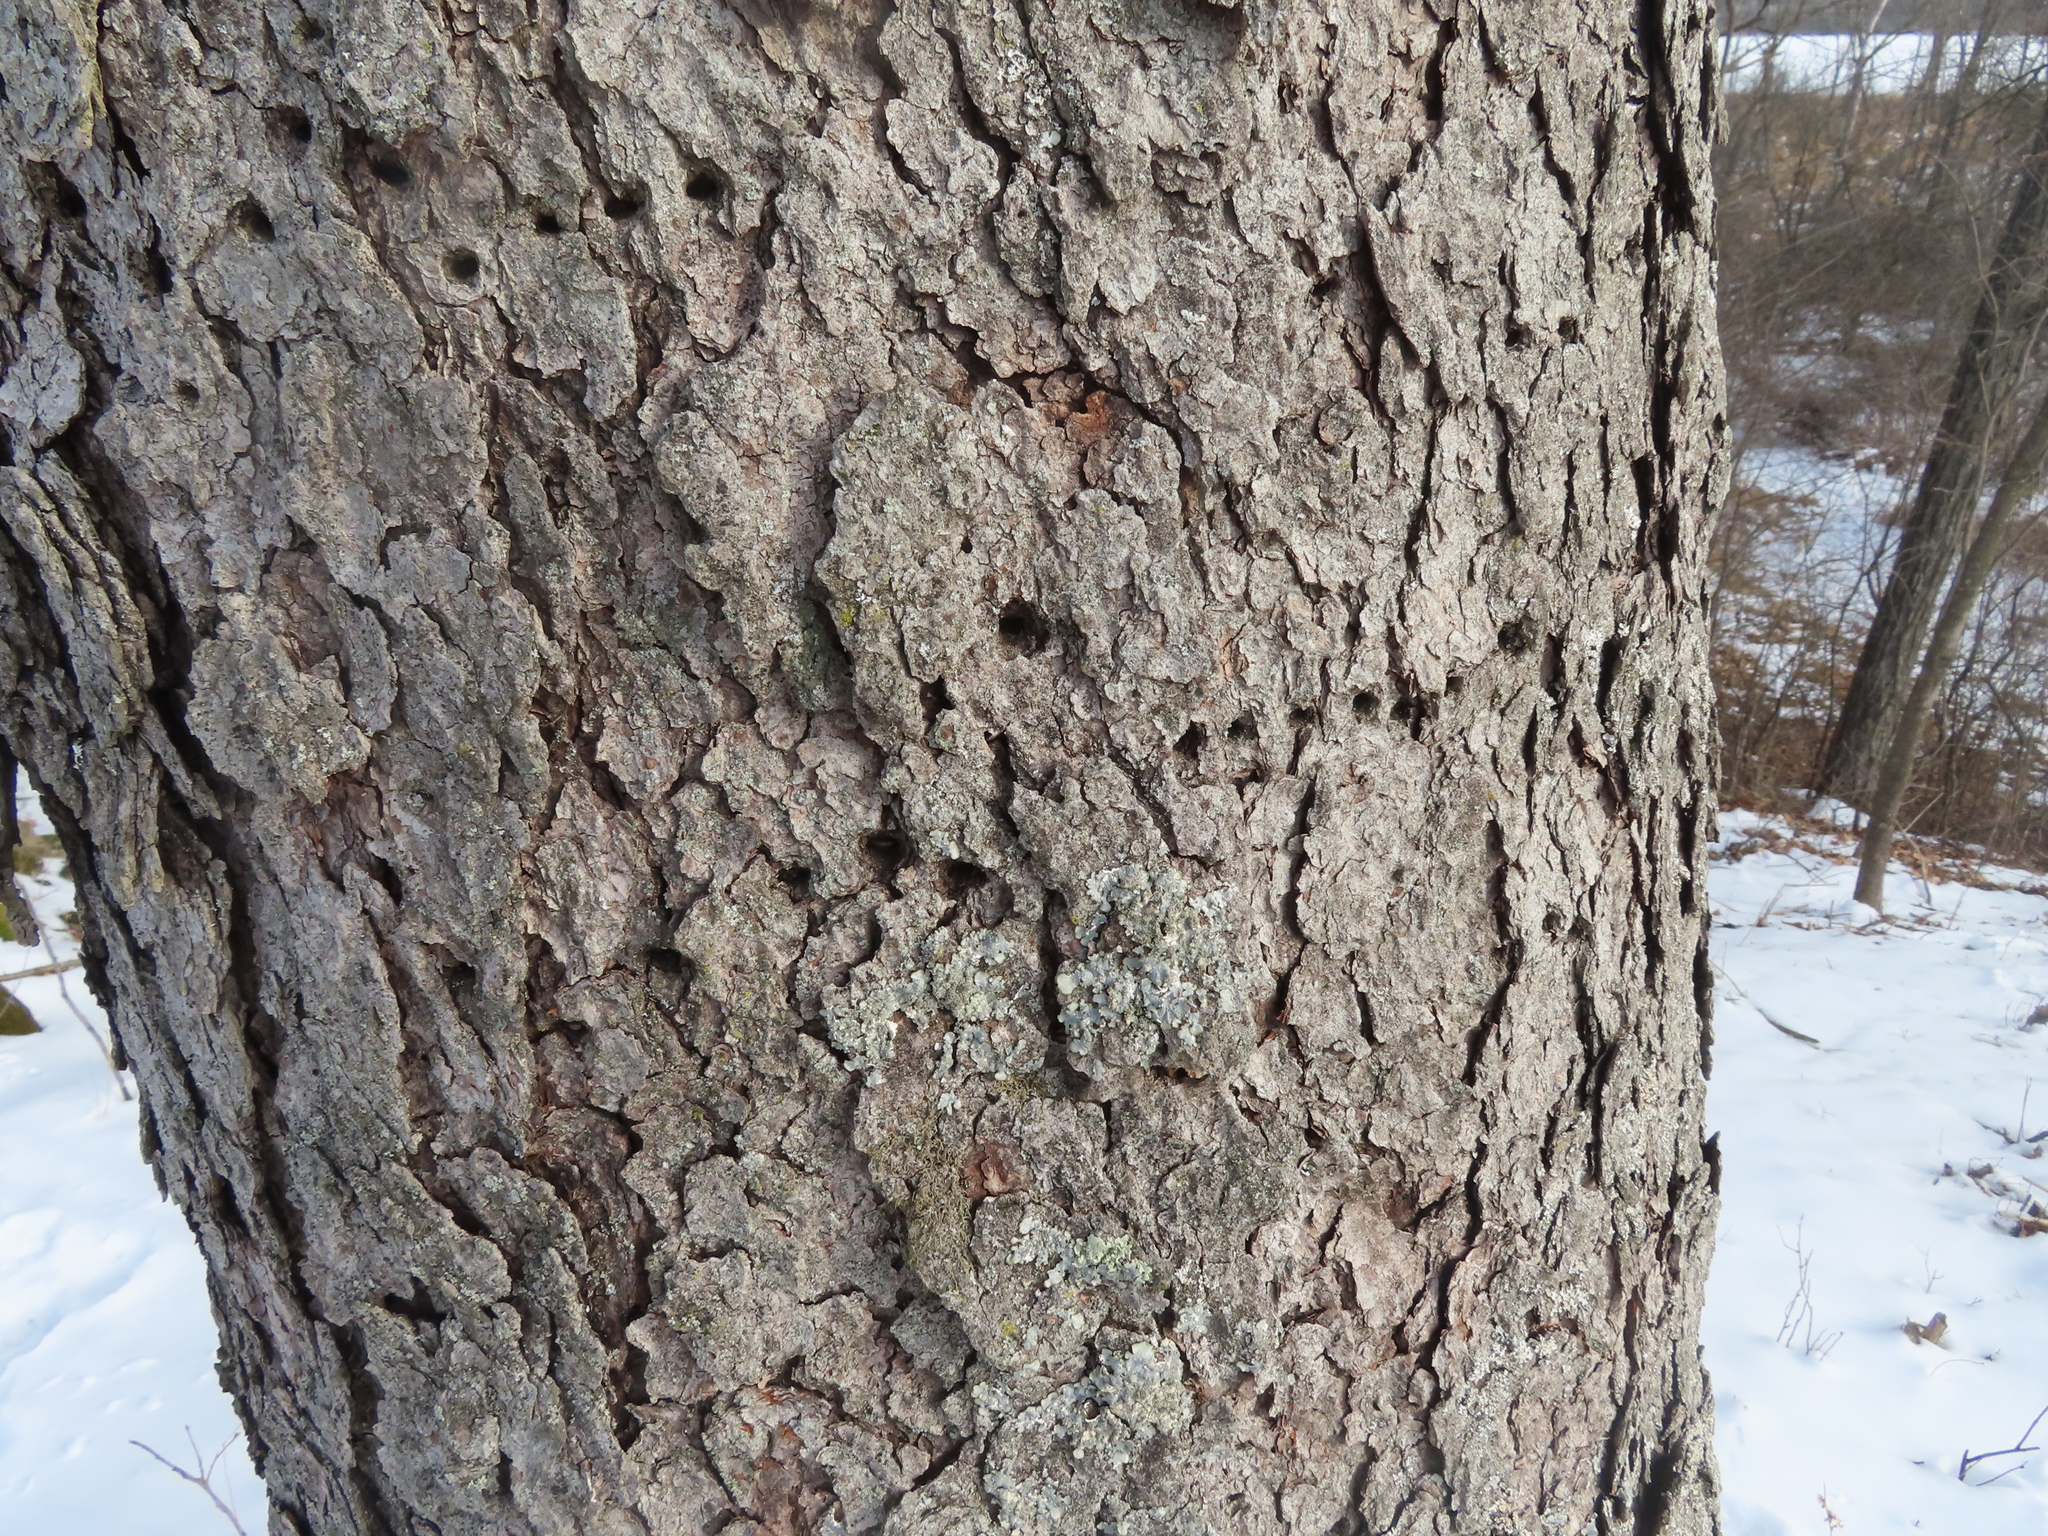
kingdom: Animalia
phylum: Chordata
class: Aves
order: Piciformes
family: Picidae
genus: Sphyrapicus
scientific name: Sphyrapicus varius
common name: Yellow-bellied sapsucker
